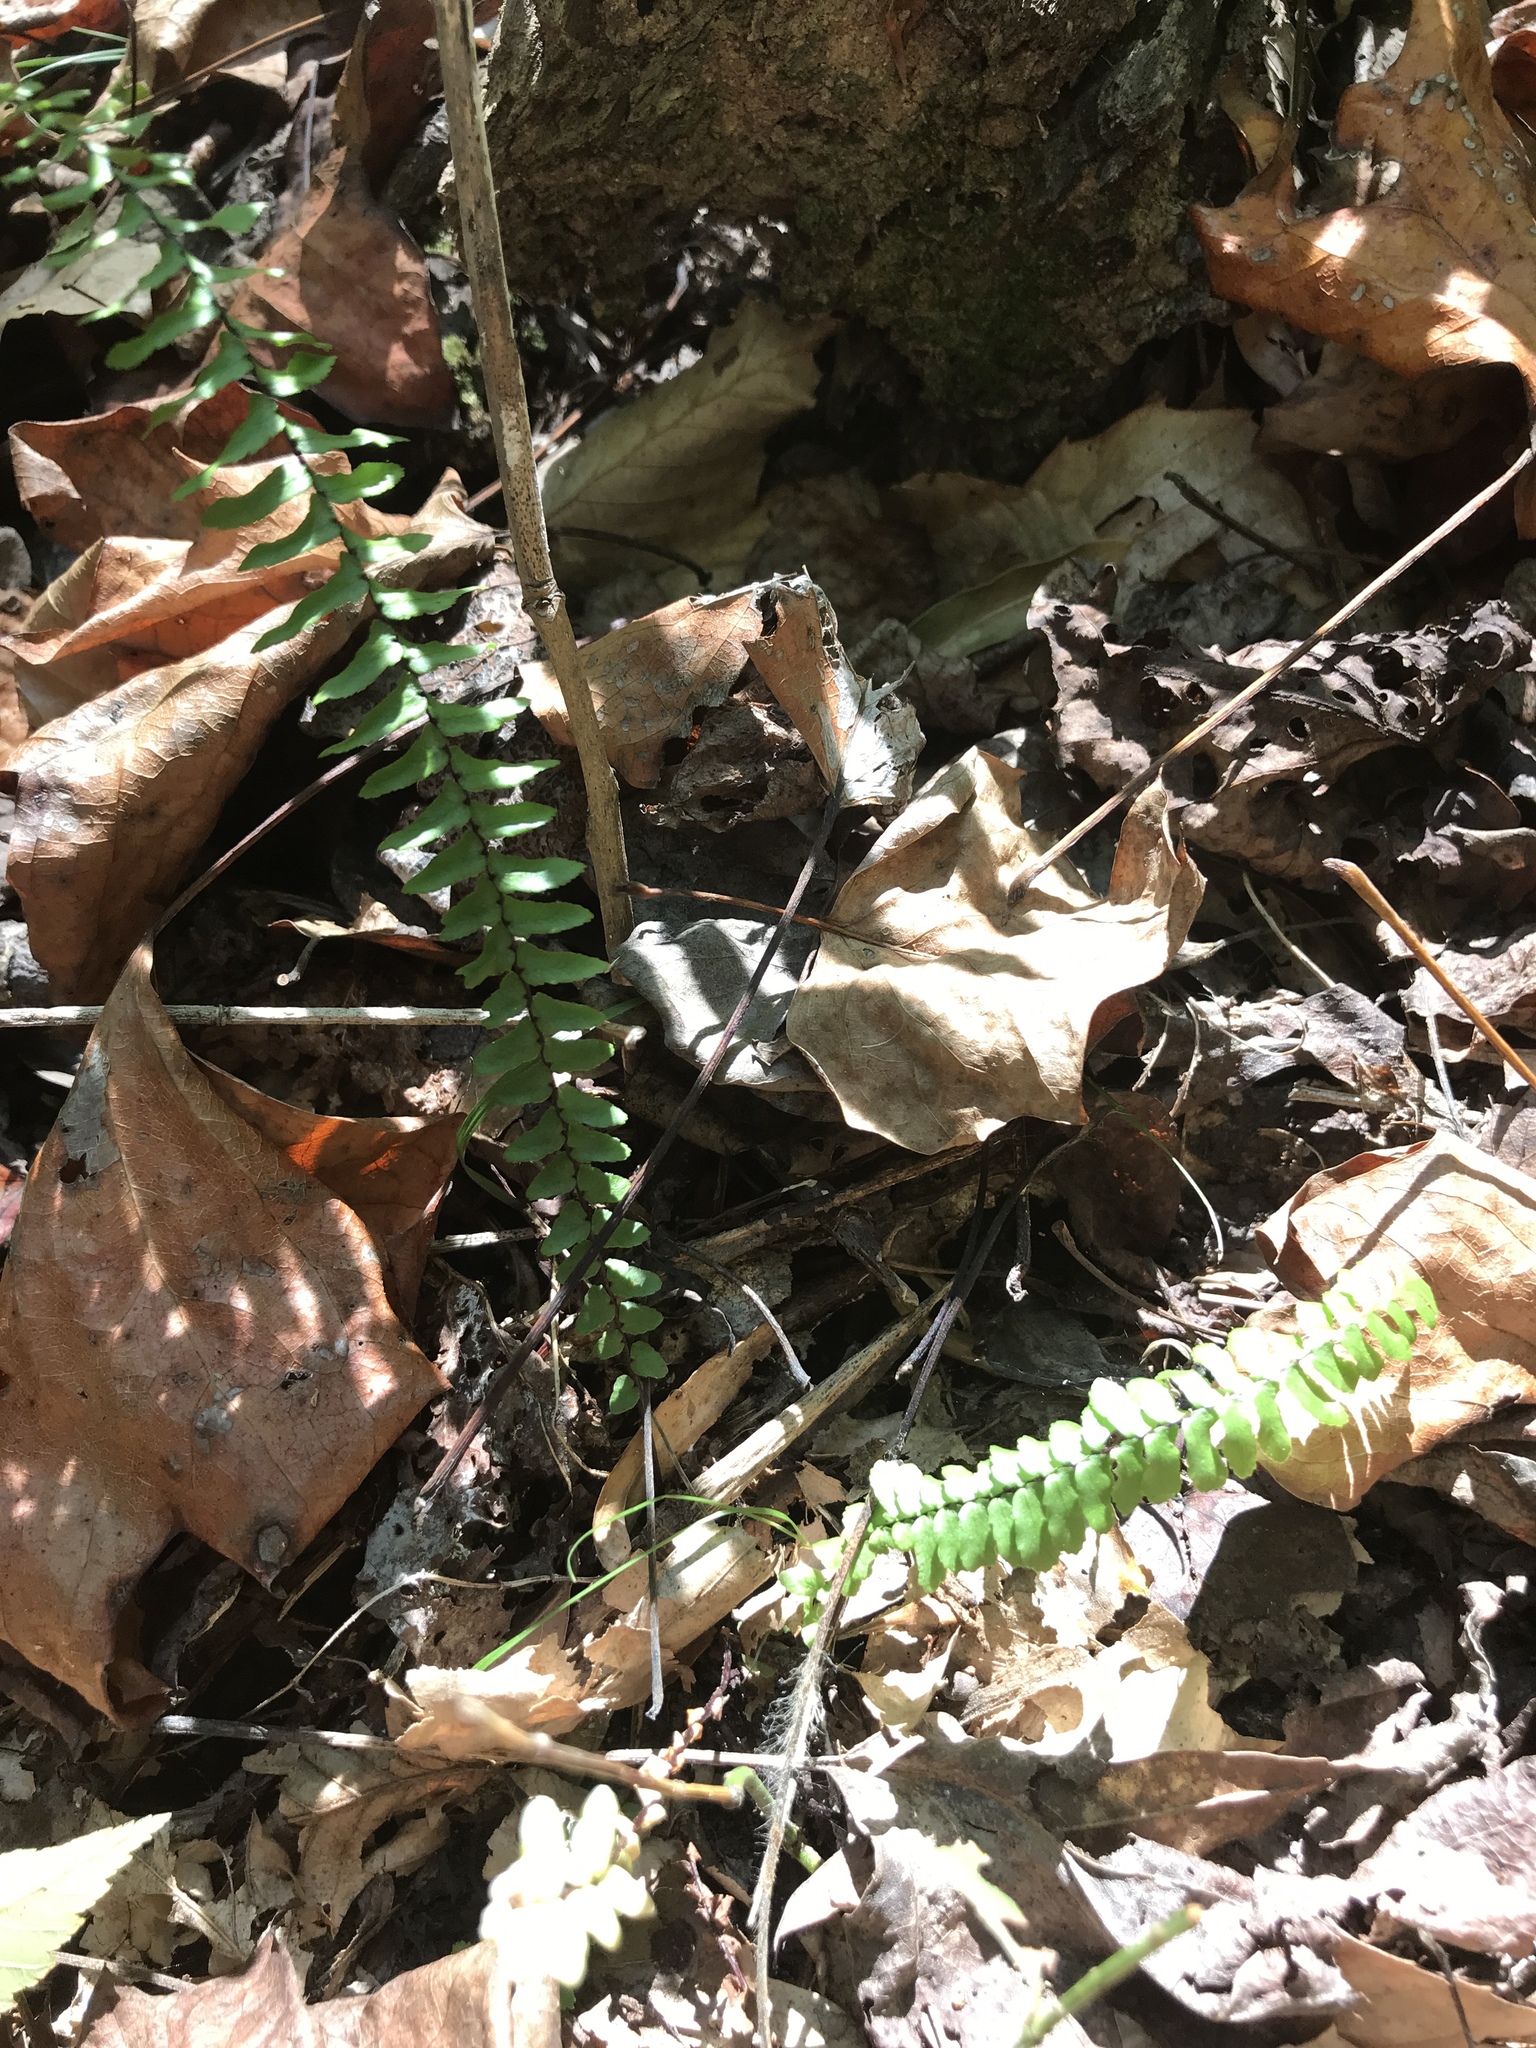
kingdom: Plantae
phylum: Tracheophyta
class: Polypodiopsida
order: Polypodiales
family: Aspleniaceae
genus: Asplenium
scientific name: Asplenium platyneuron
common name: Ebony spleenwort
